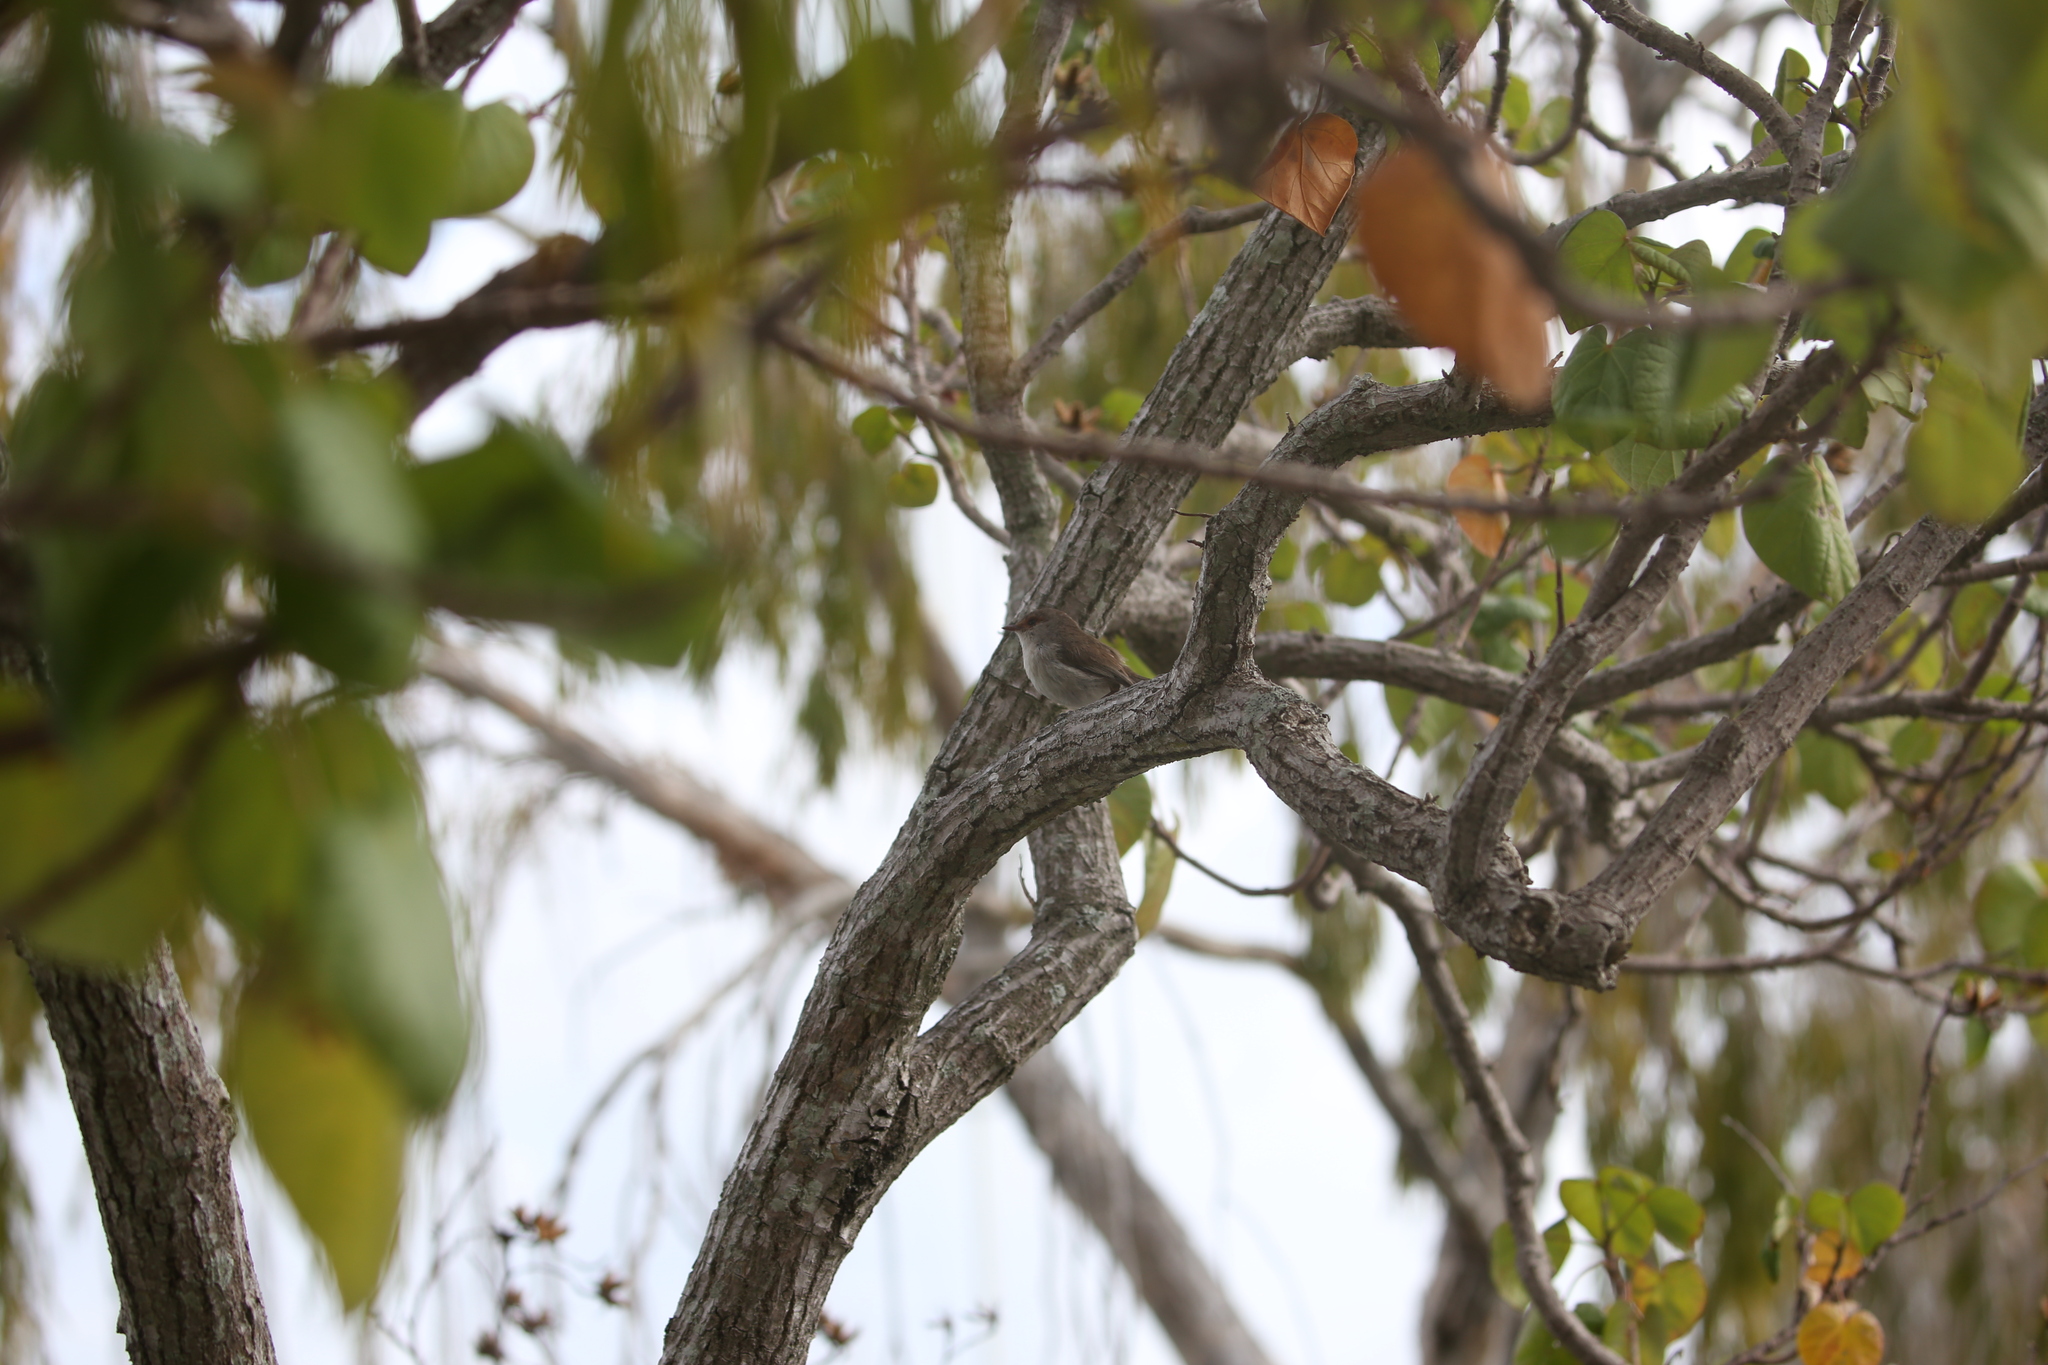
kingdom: Animalia
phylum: Chordata
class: Aves
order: Passeriformes
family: Maluridae
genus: Malurus
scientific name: Malurus cyaneus
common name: Superb fairywren
